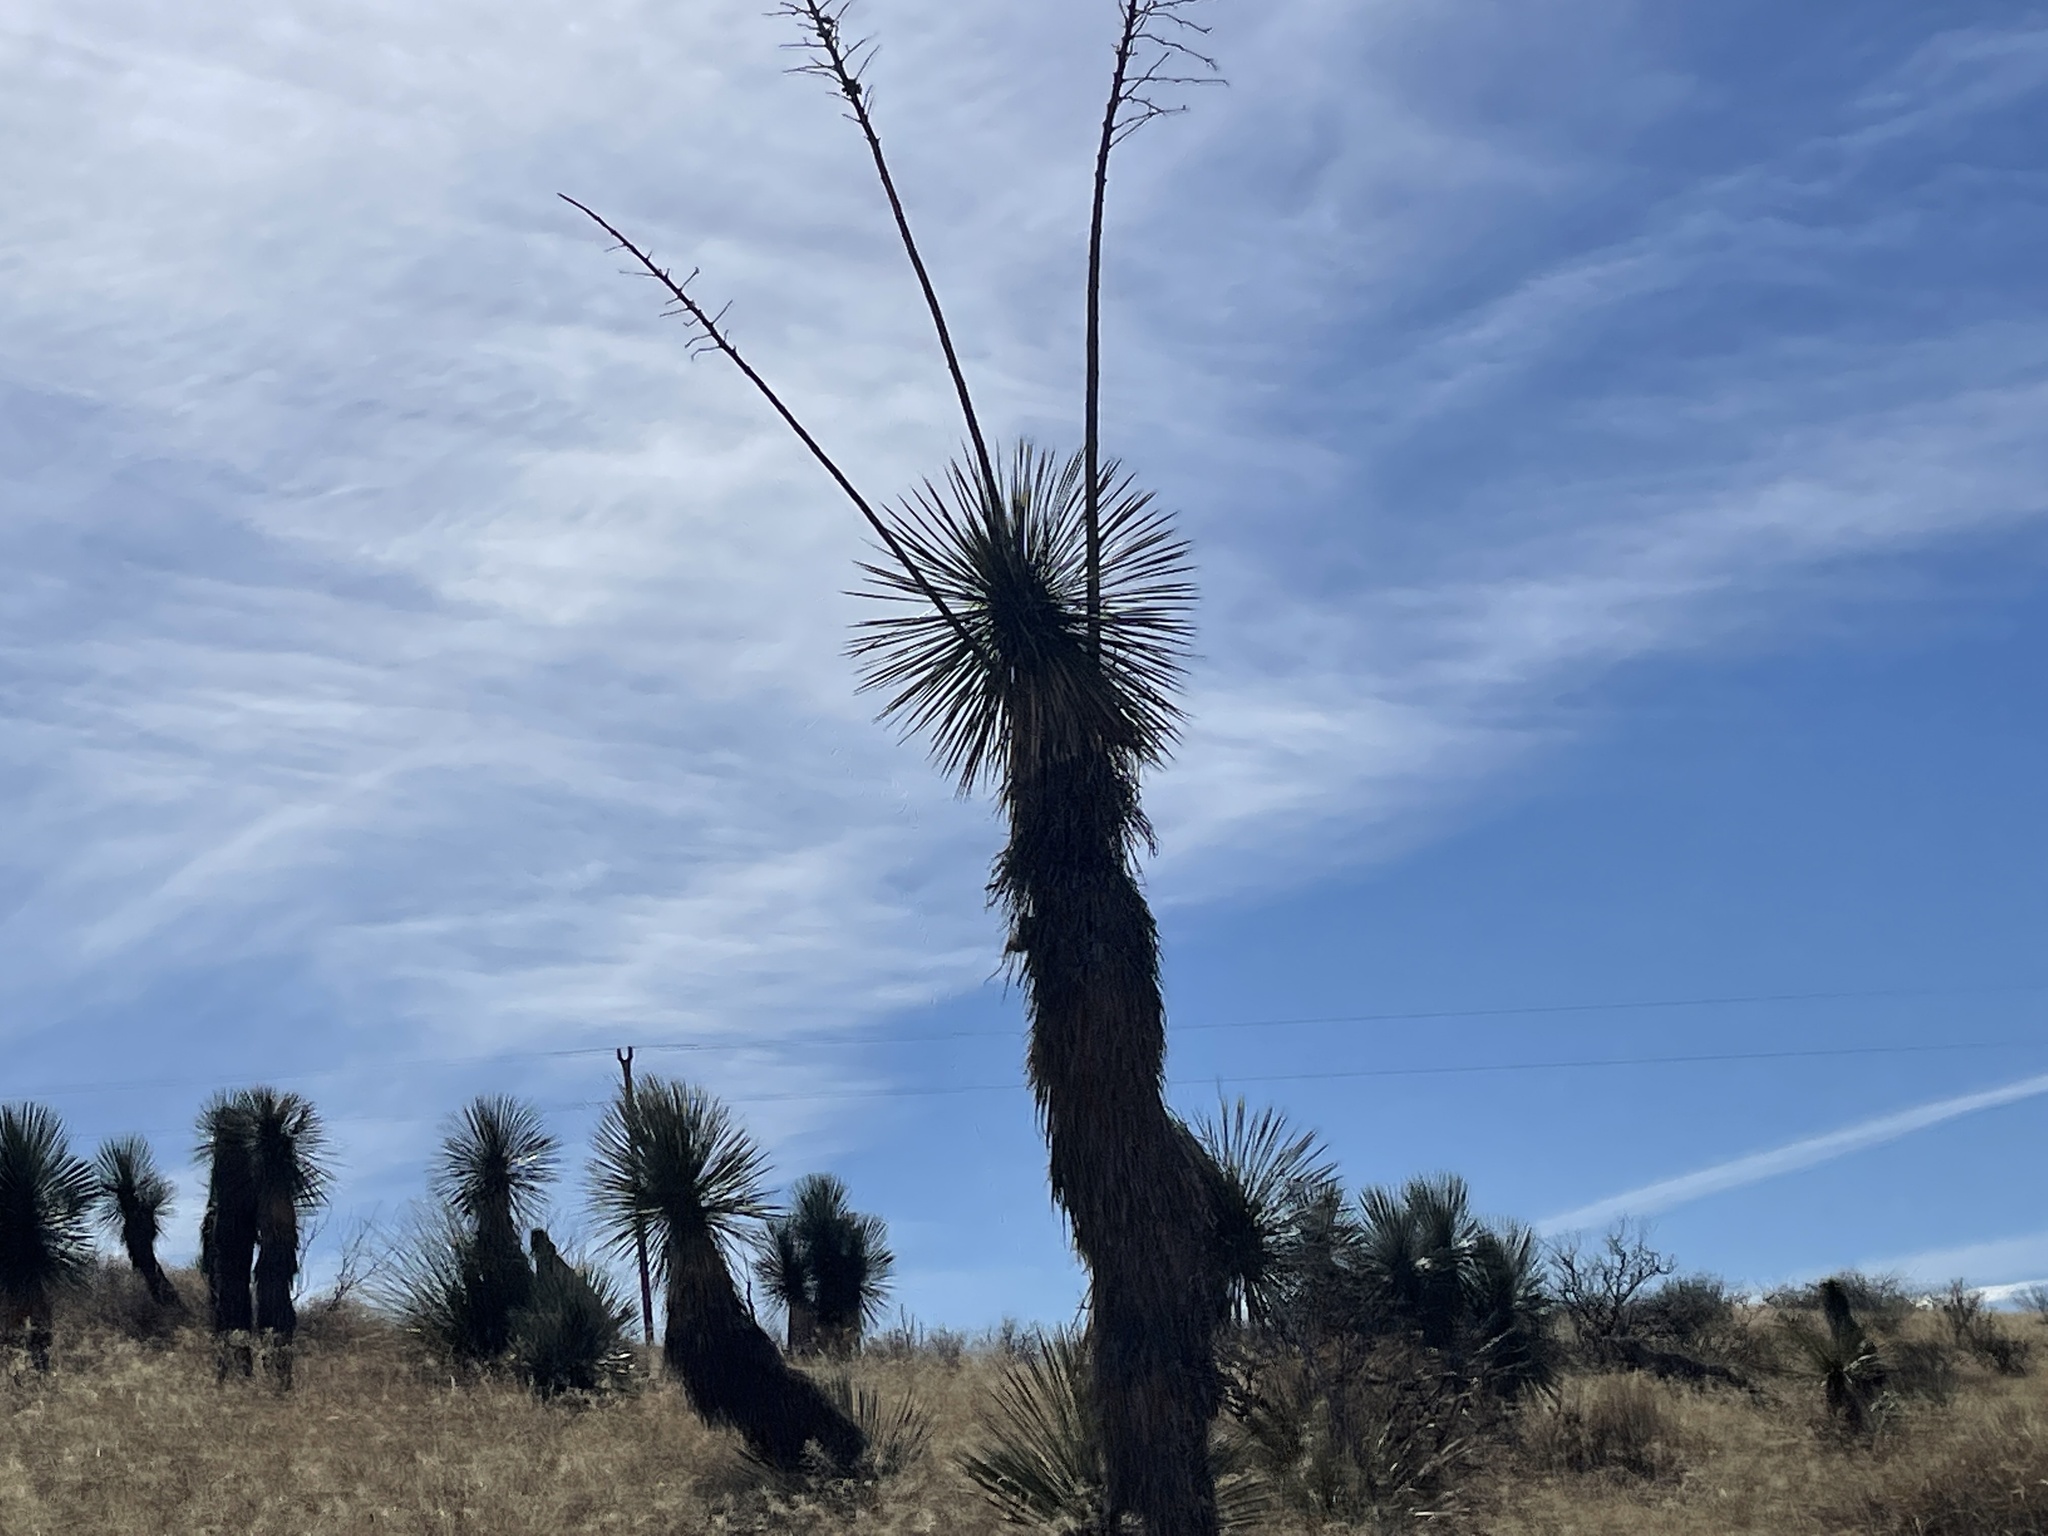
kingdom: Plantae
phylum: Tracheophyta
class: Liliopsida
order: Asparagales
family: Asparagaceae
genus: Yucca
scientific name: Yucca elata
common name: Palmella
